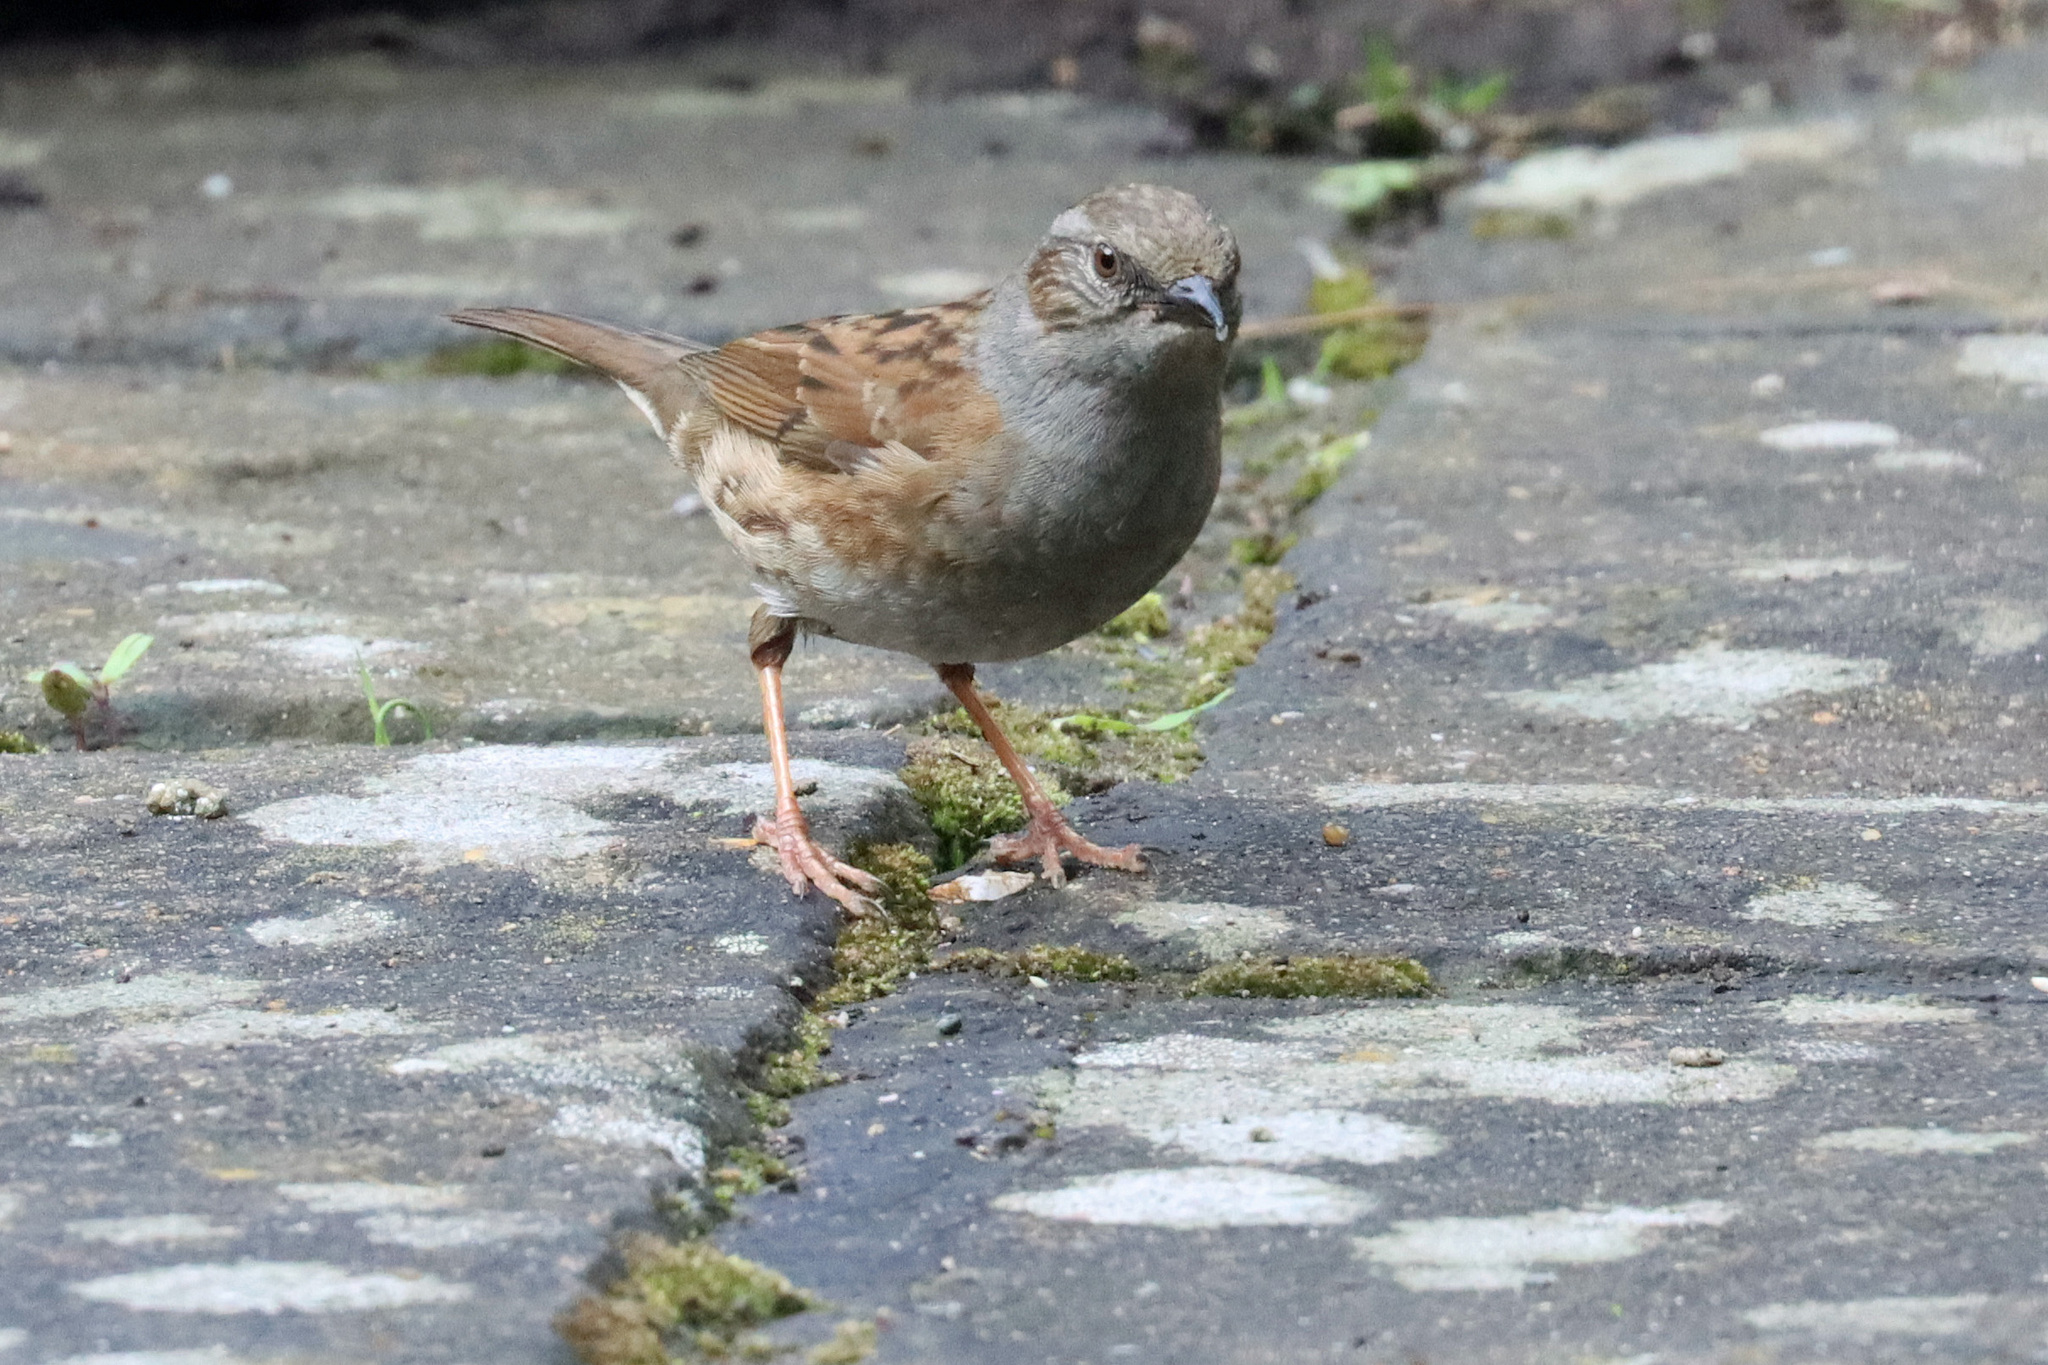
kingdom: Animalia
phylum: Chordata
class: Aves
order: Passeriformes
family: Prunellidae
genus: Prunella
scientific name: Prunella modularis
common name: Dunnock
